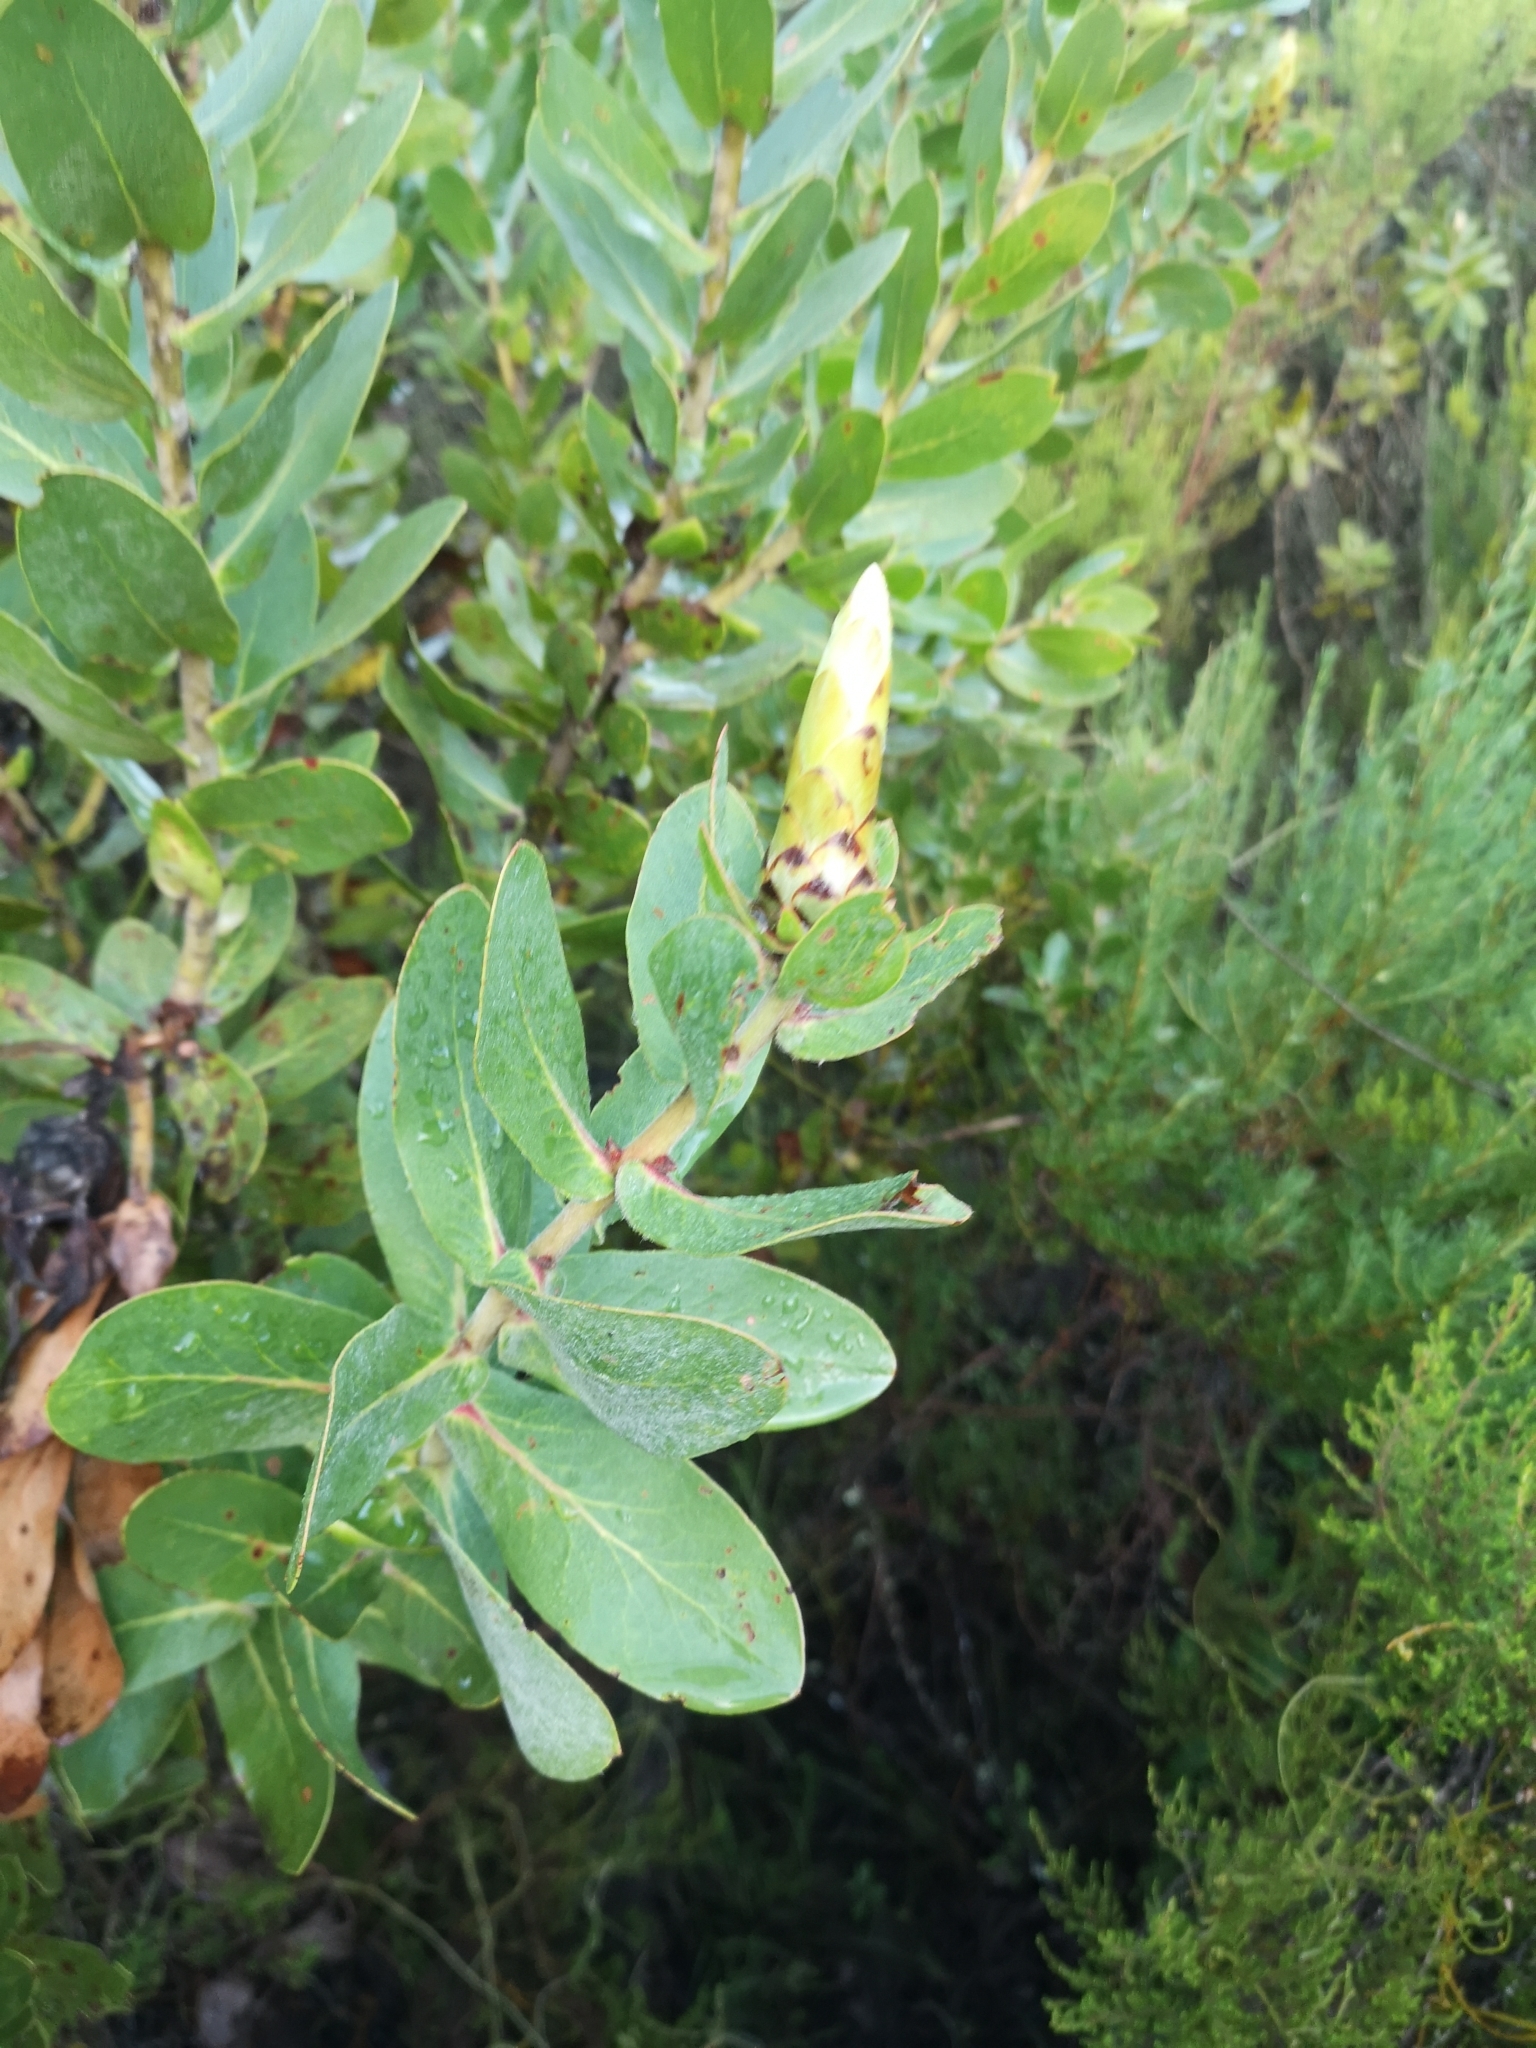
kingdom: Plantae
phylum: Tracheophyta
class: Magnoliopsida
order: Proteales
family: Proteaceae
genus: Protea
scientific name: Protea aurea
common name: Shuttlecock sugarbush
